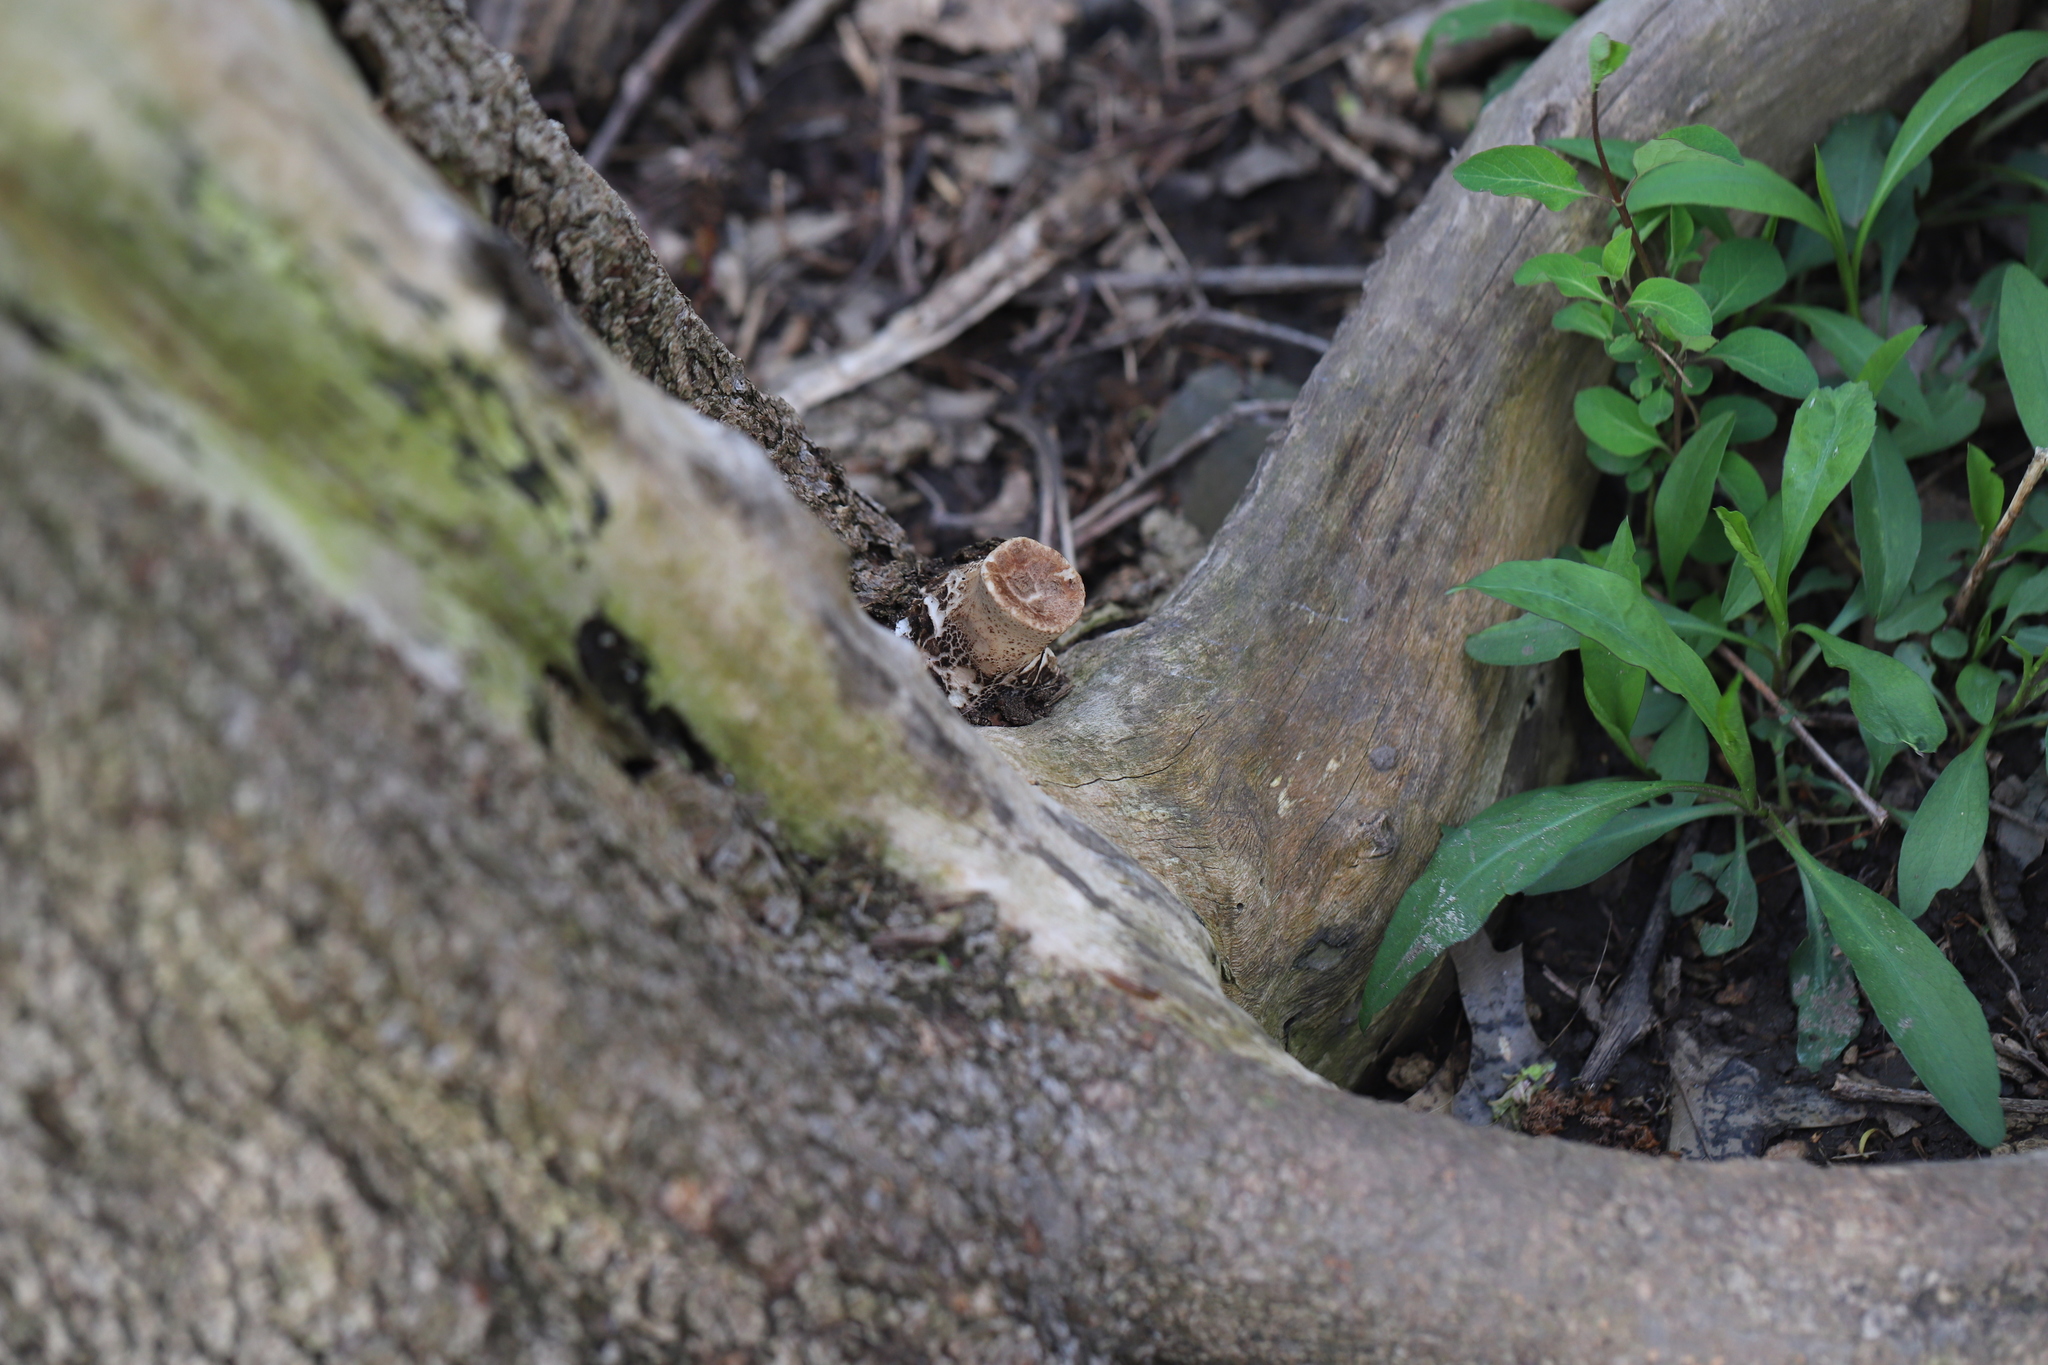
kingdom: Fungi
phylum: Basidiomycota
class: Agaricomycetes
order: Polyporales
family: Polyporaceae
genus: Cerioporus
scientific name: Cerioporus squamosus
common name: Dryad's saddle
